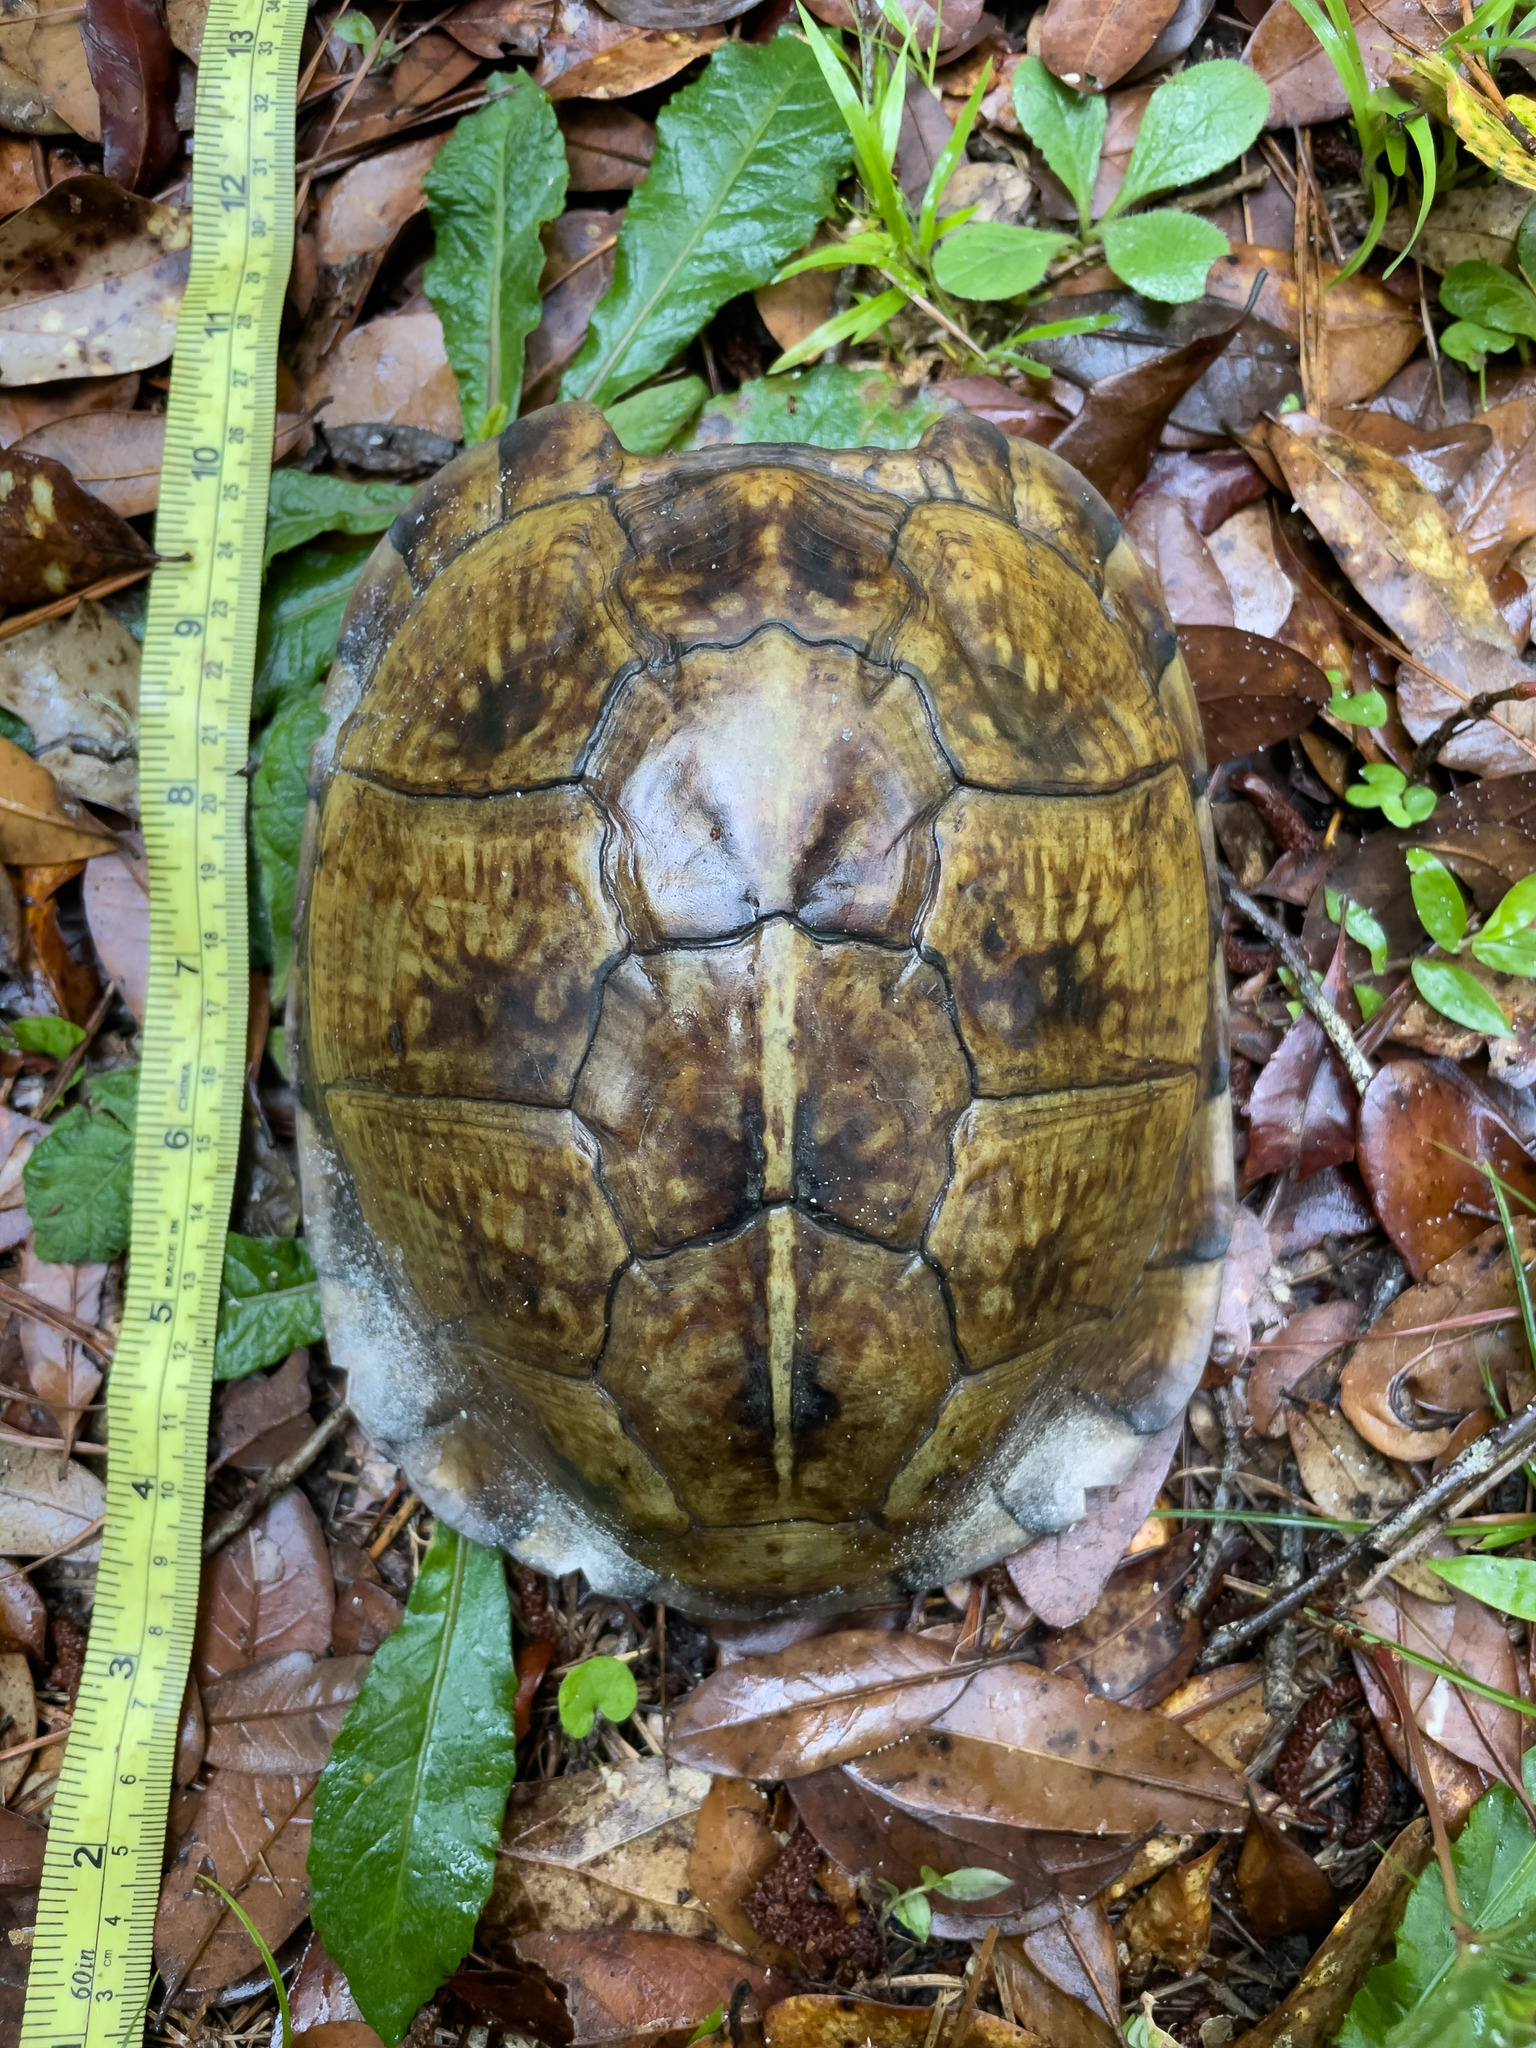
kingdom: Animalia
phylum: Chordata
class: Testudines
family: Emydidae
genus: Terrapene
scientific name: Terrapene carolina
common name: Common box turtle
